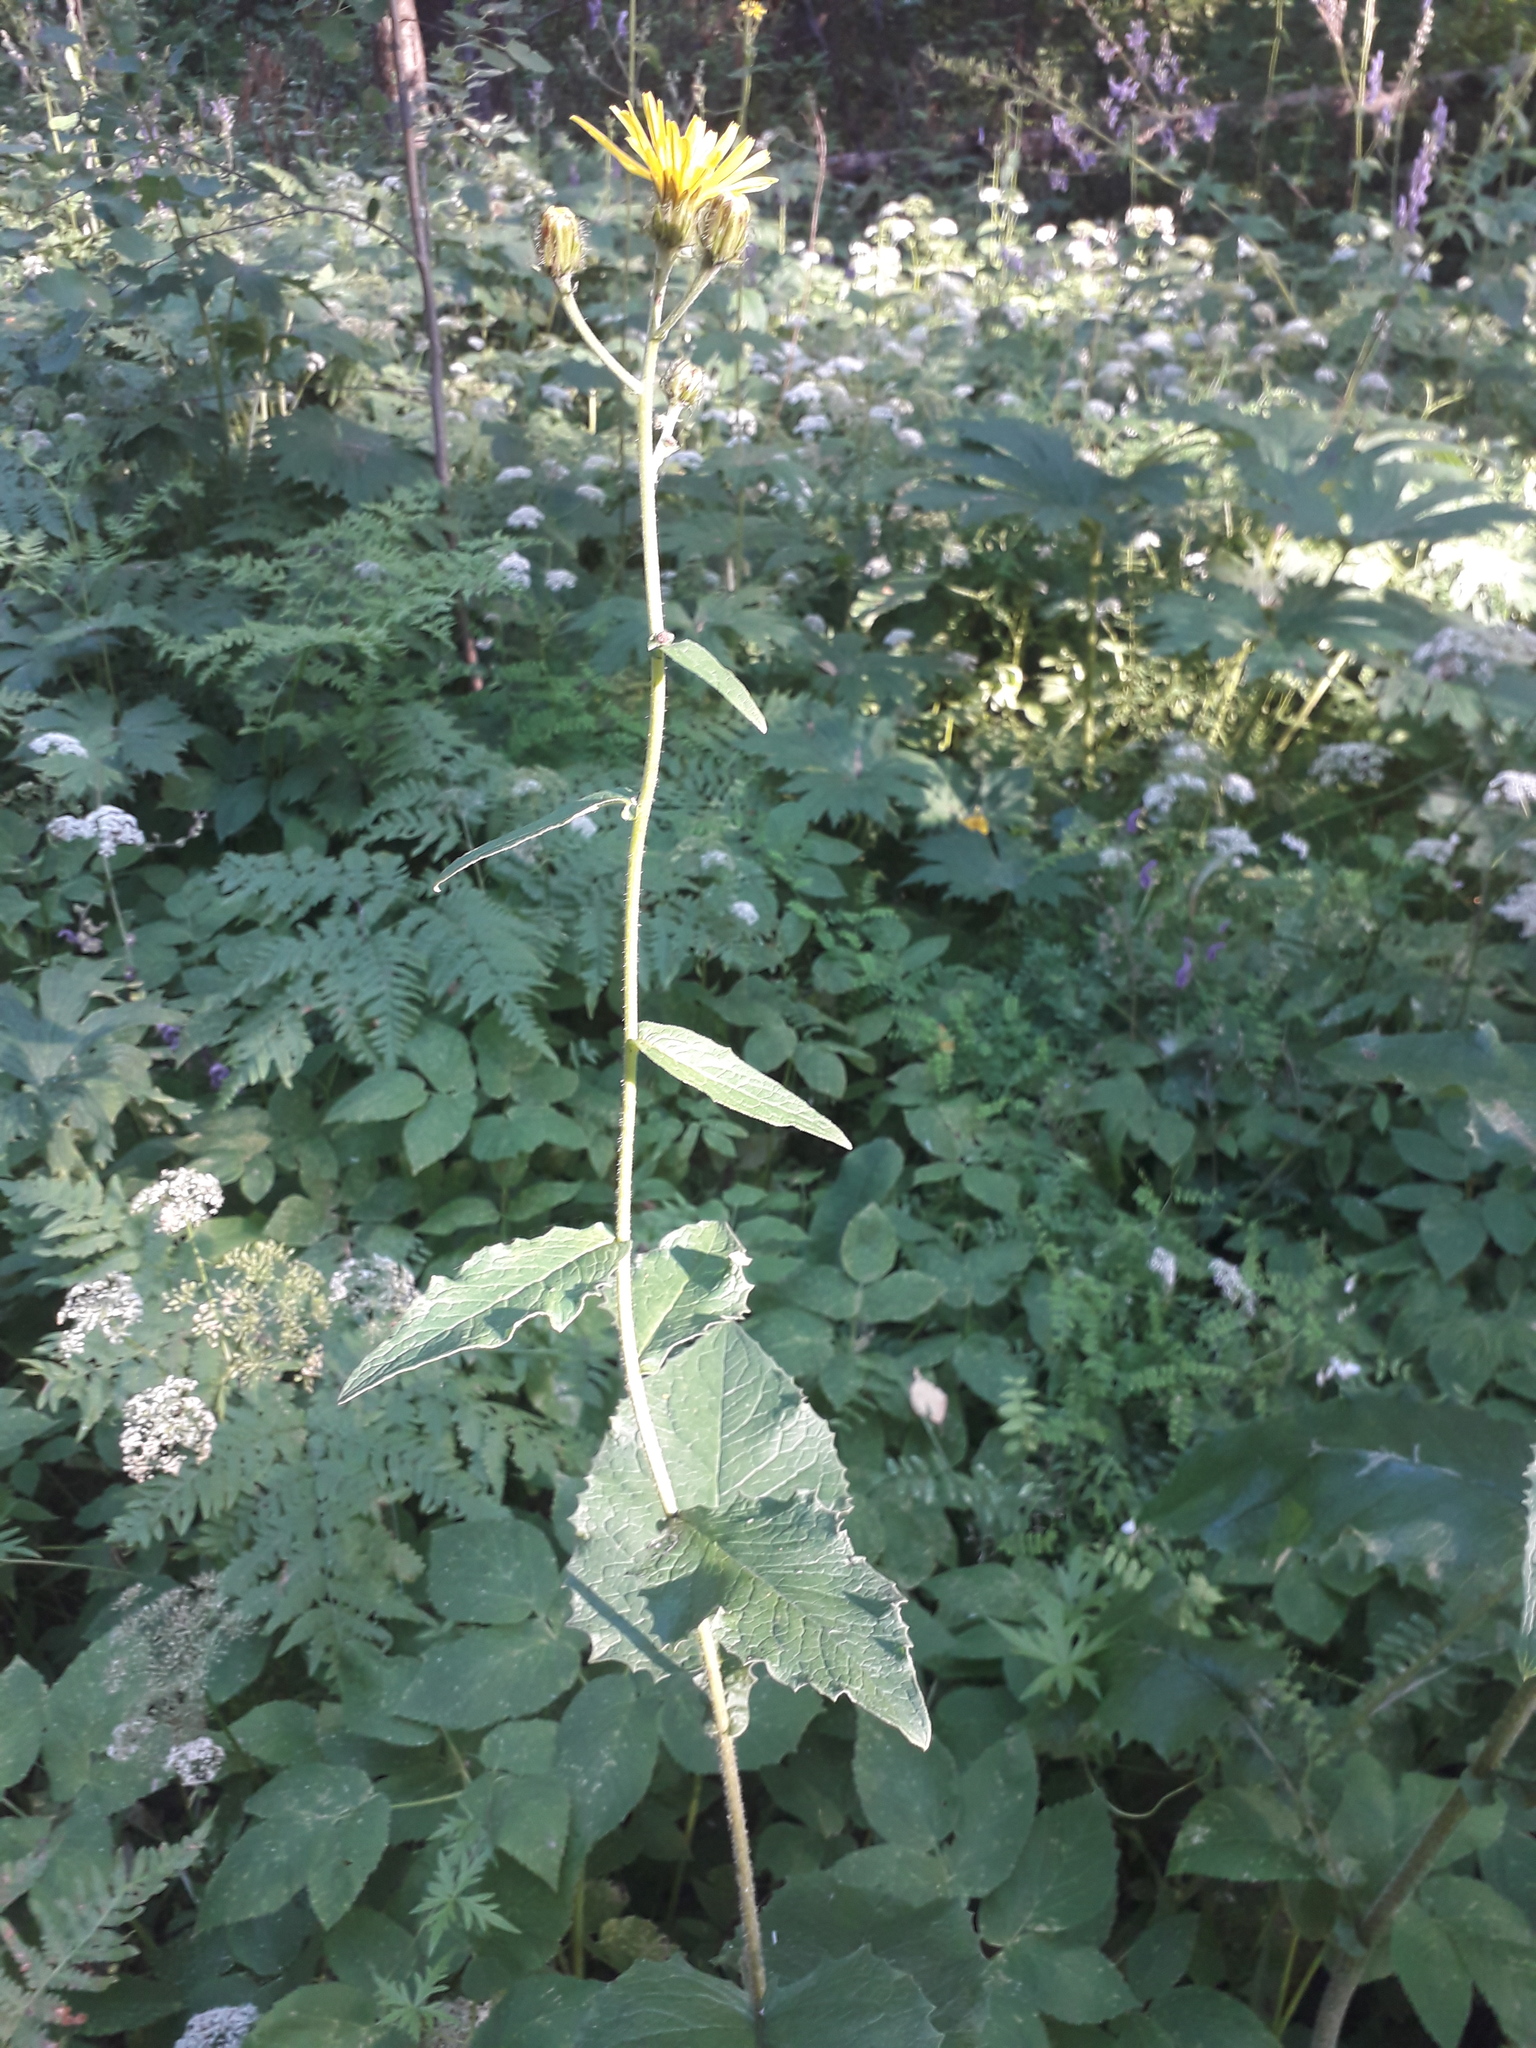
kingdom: Plantae
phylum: Tracheophyta
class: Magnoliopsida
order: Asterales
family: Asteraceae
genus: Crepis
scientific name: Crepis sibirica
